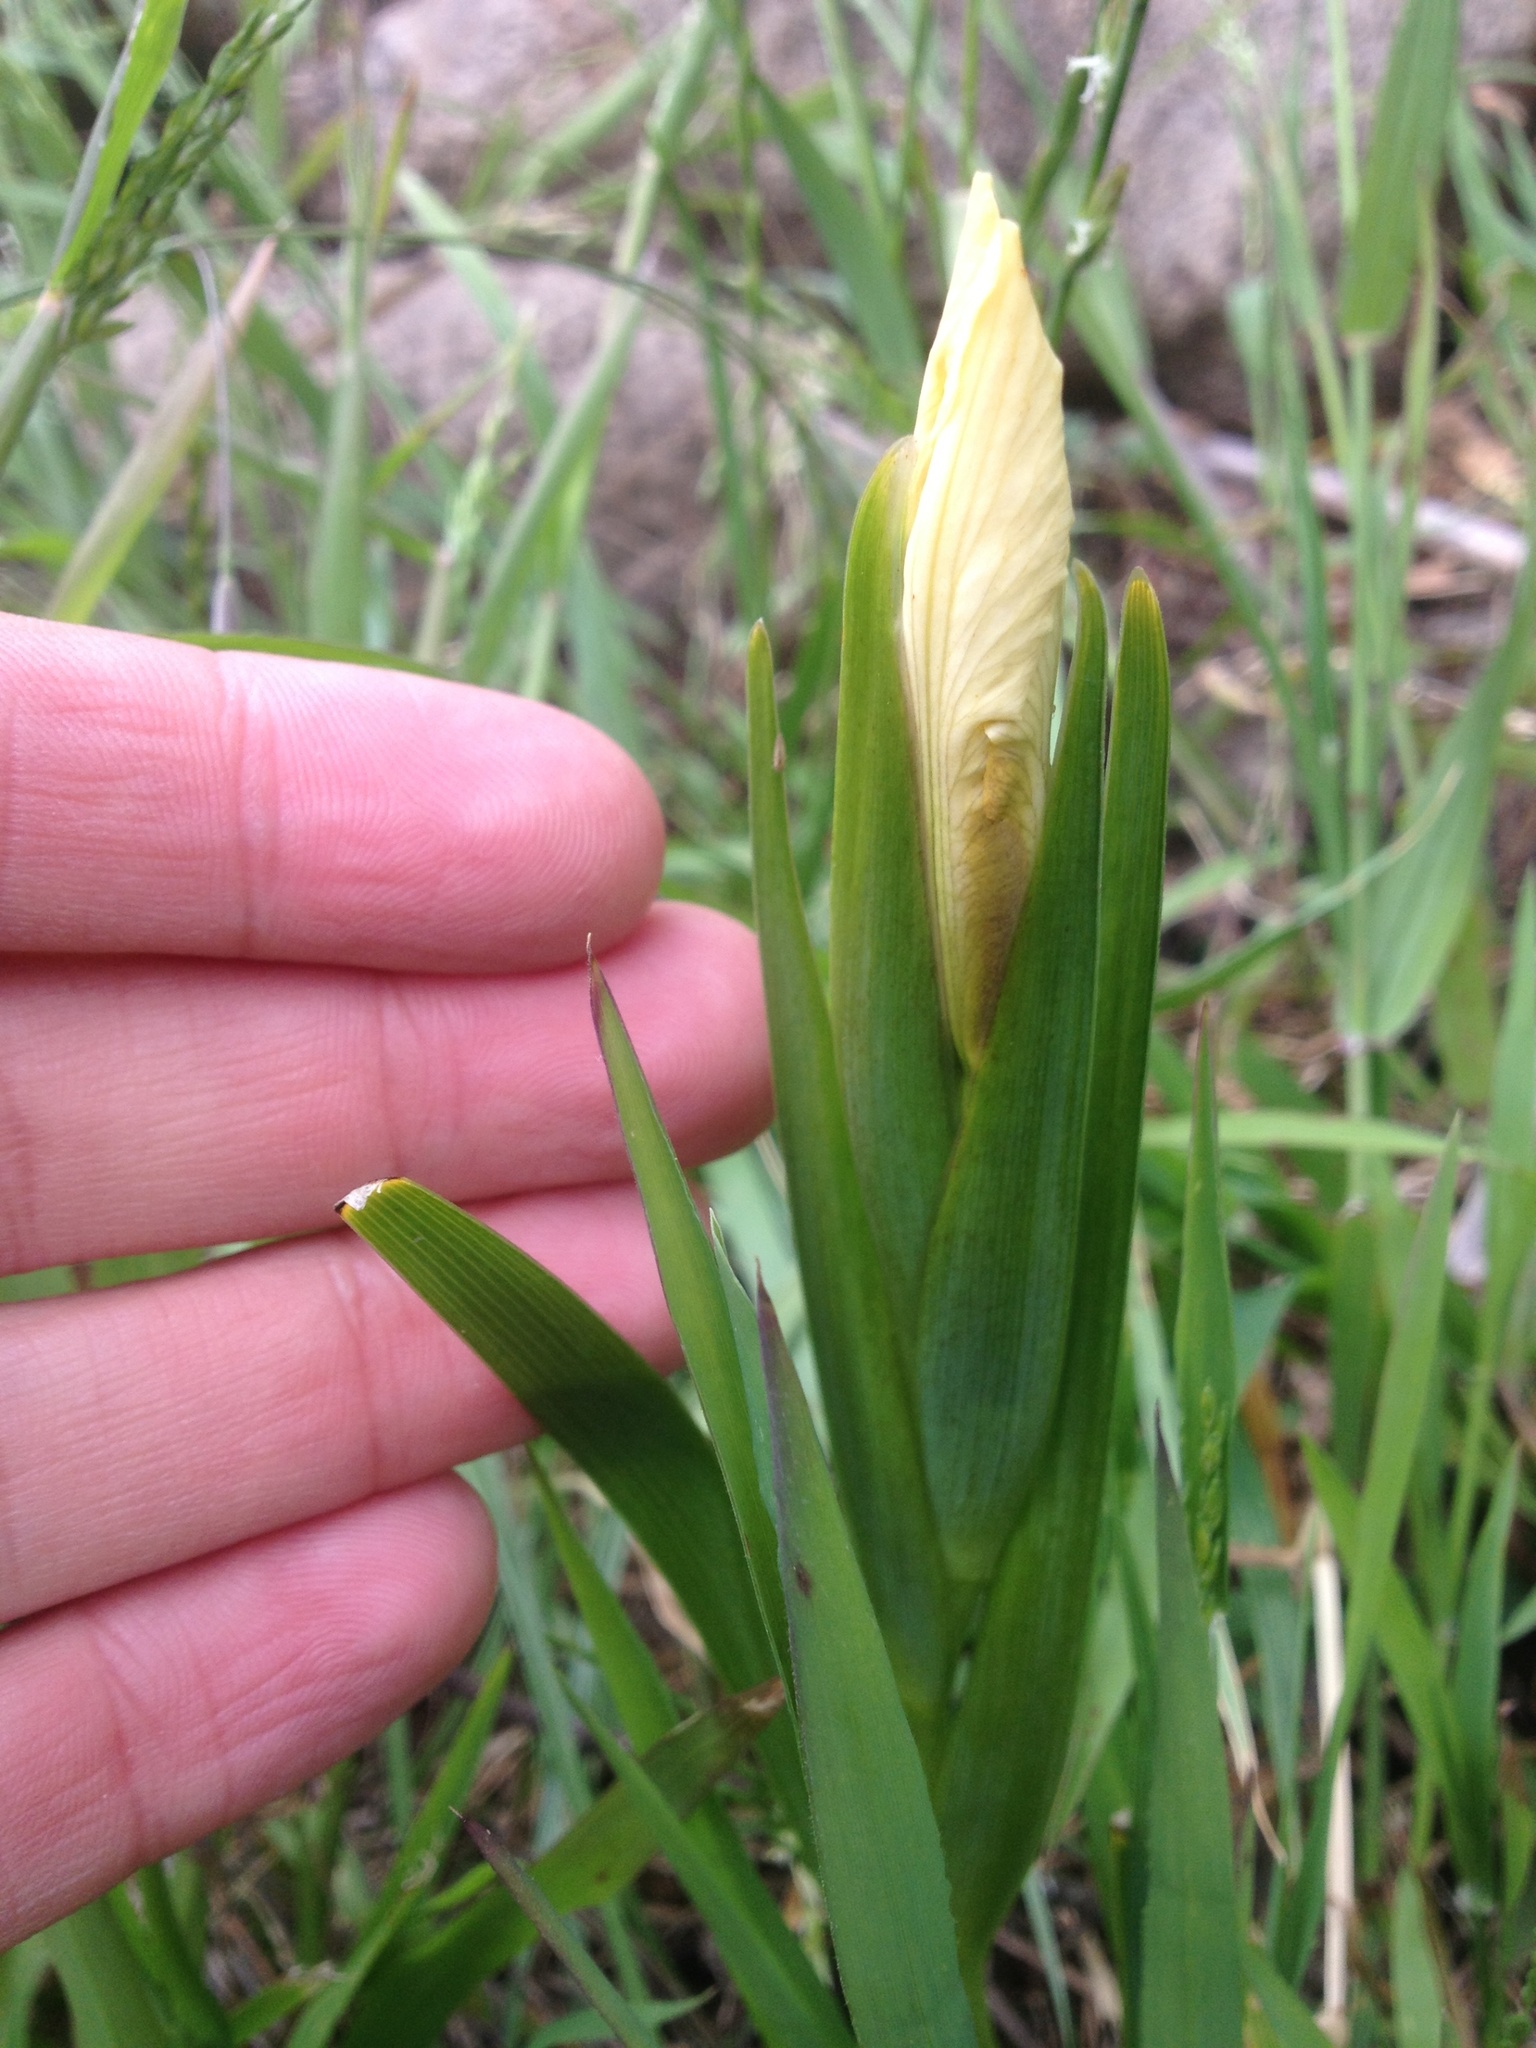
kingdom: Plantae
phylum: Tracheophyta
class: Liliopsida
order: Asparagales
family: Iridaceae
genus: Iris
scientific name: Iris foetidissima
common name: Stinking iris
